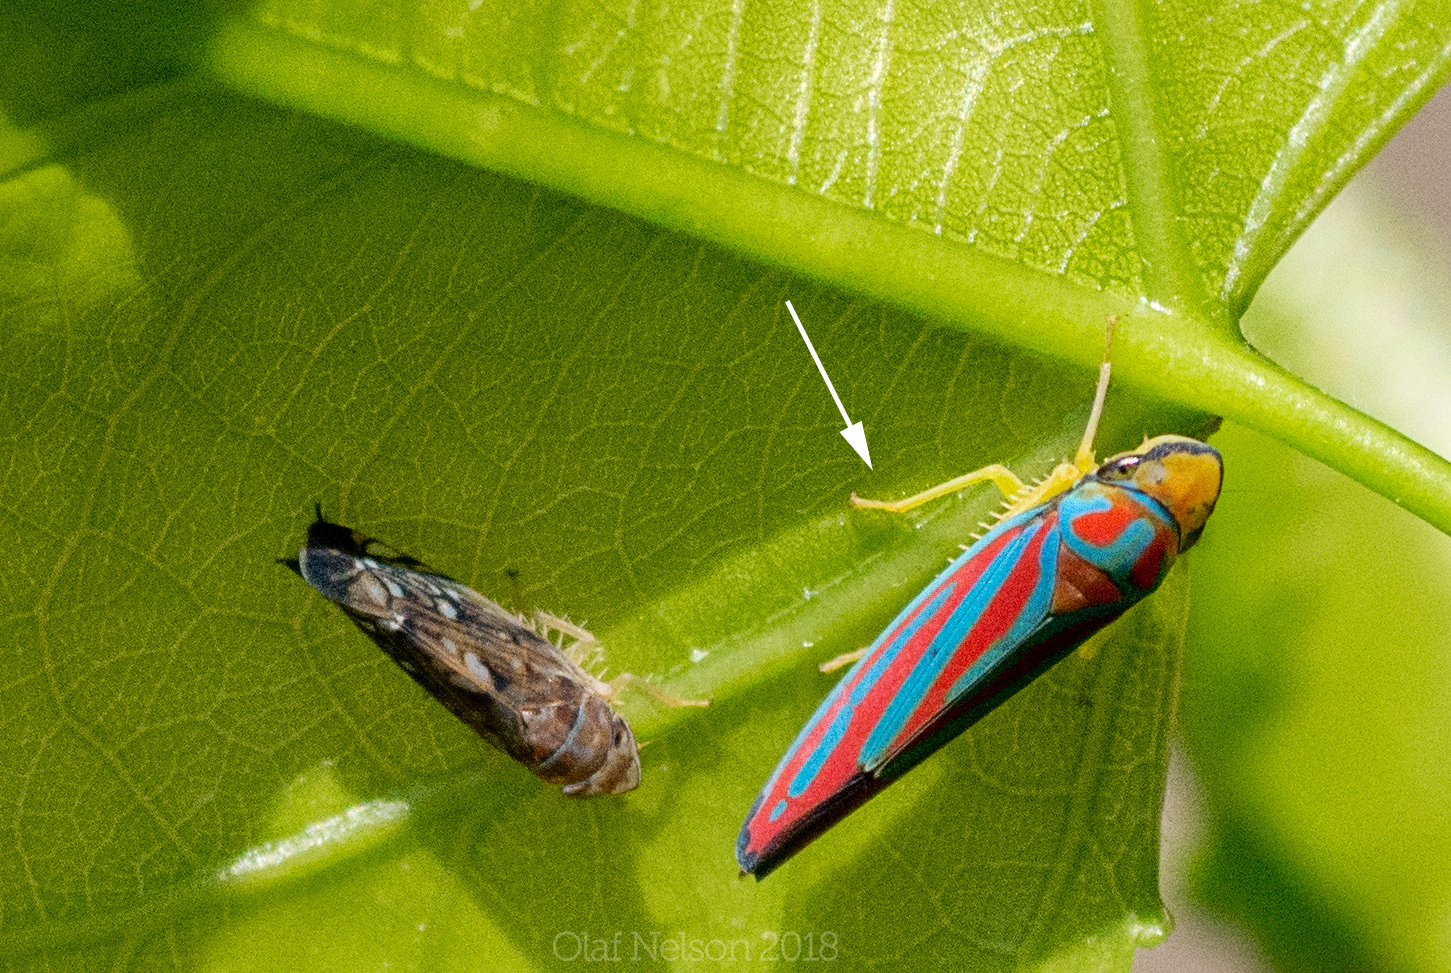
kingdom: Animalia
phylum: Arthropoda
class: Insecta
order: Hemiptera
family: Cicadellidae
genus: Graphocephala
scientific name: Graphocephala coccinea
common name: Candy-striped leafhopper
